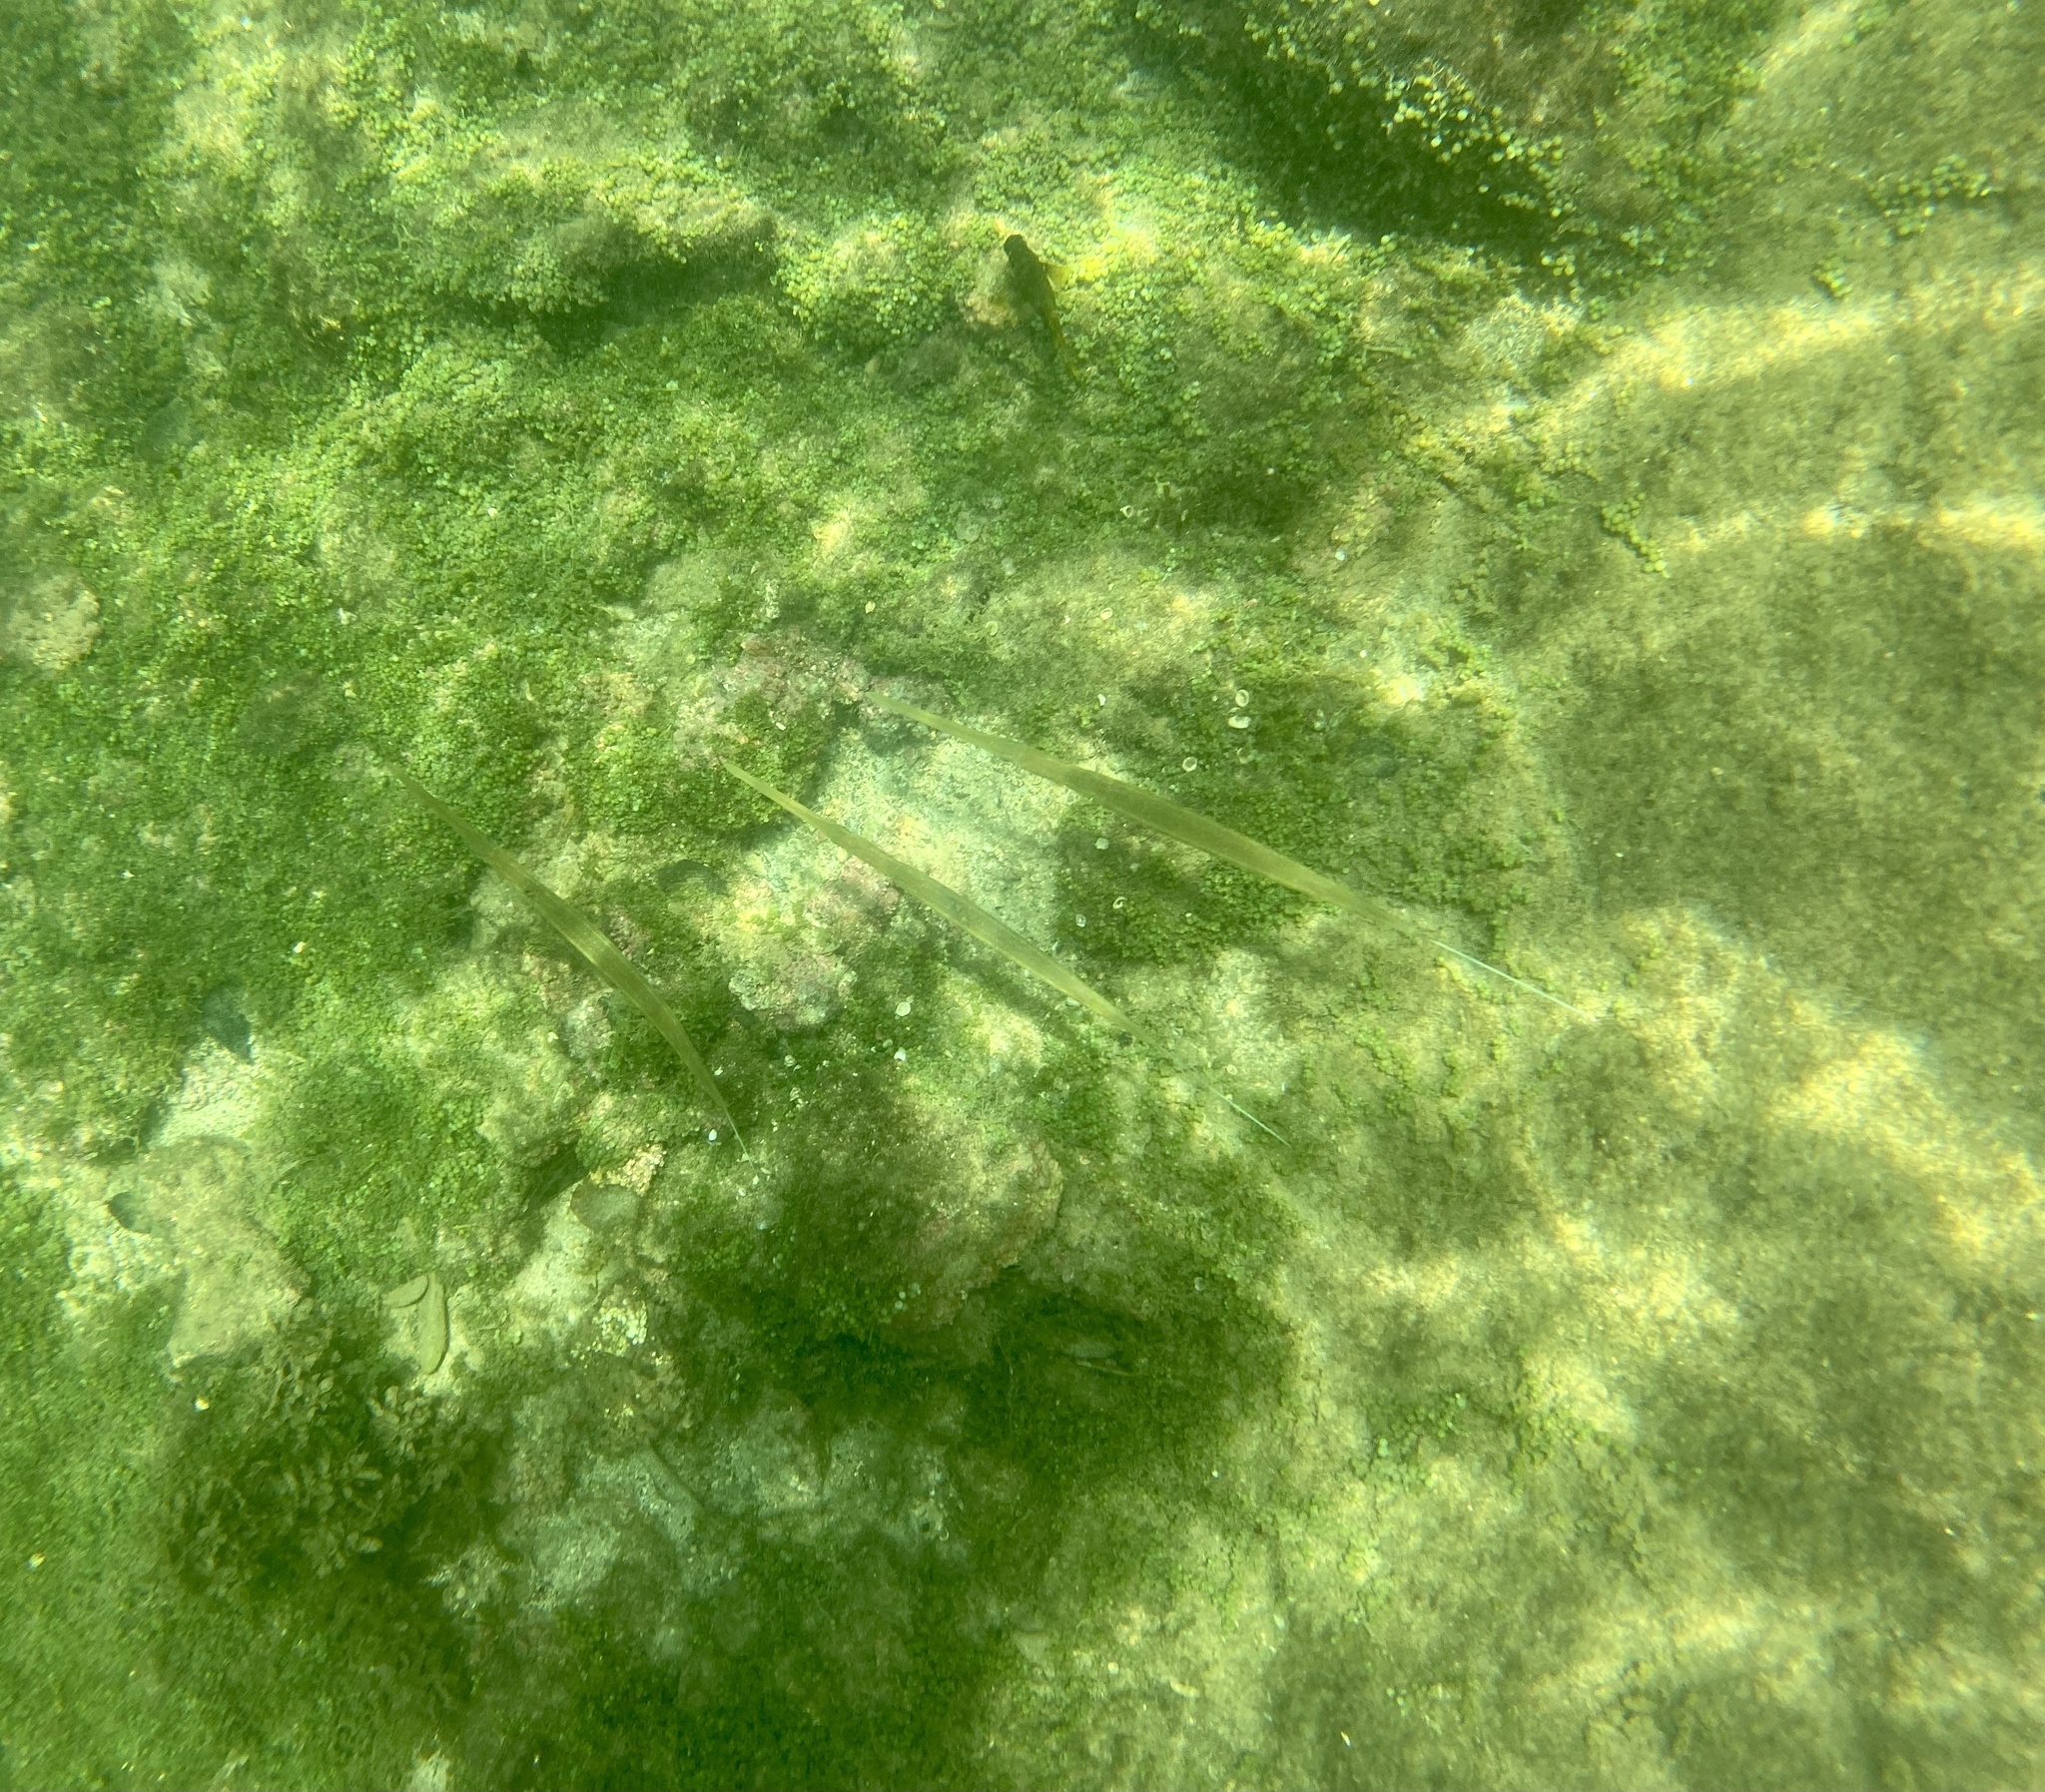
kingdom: Animalia
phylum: Chordata
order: Syngnathiformes
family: Fistulariidae
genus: Fistularia
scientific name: Fistularia commersonii
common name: Bluespotted cornetfish
